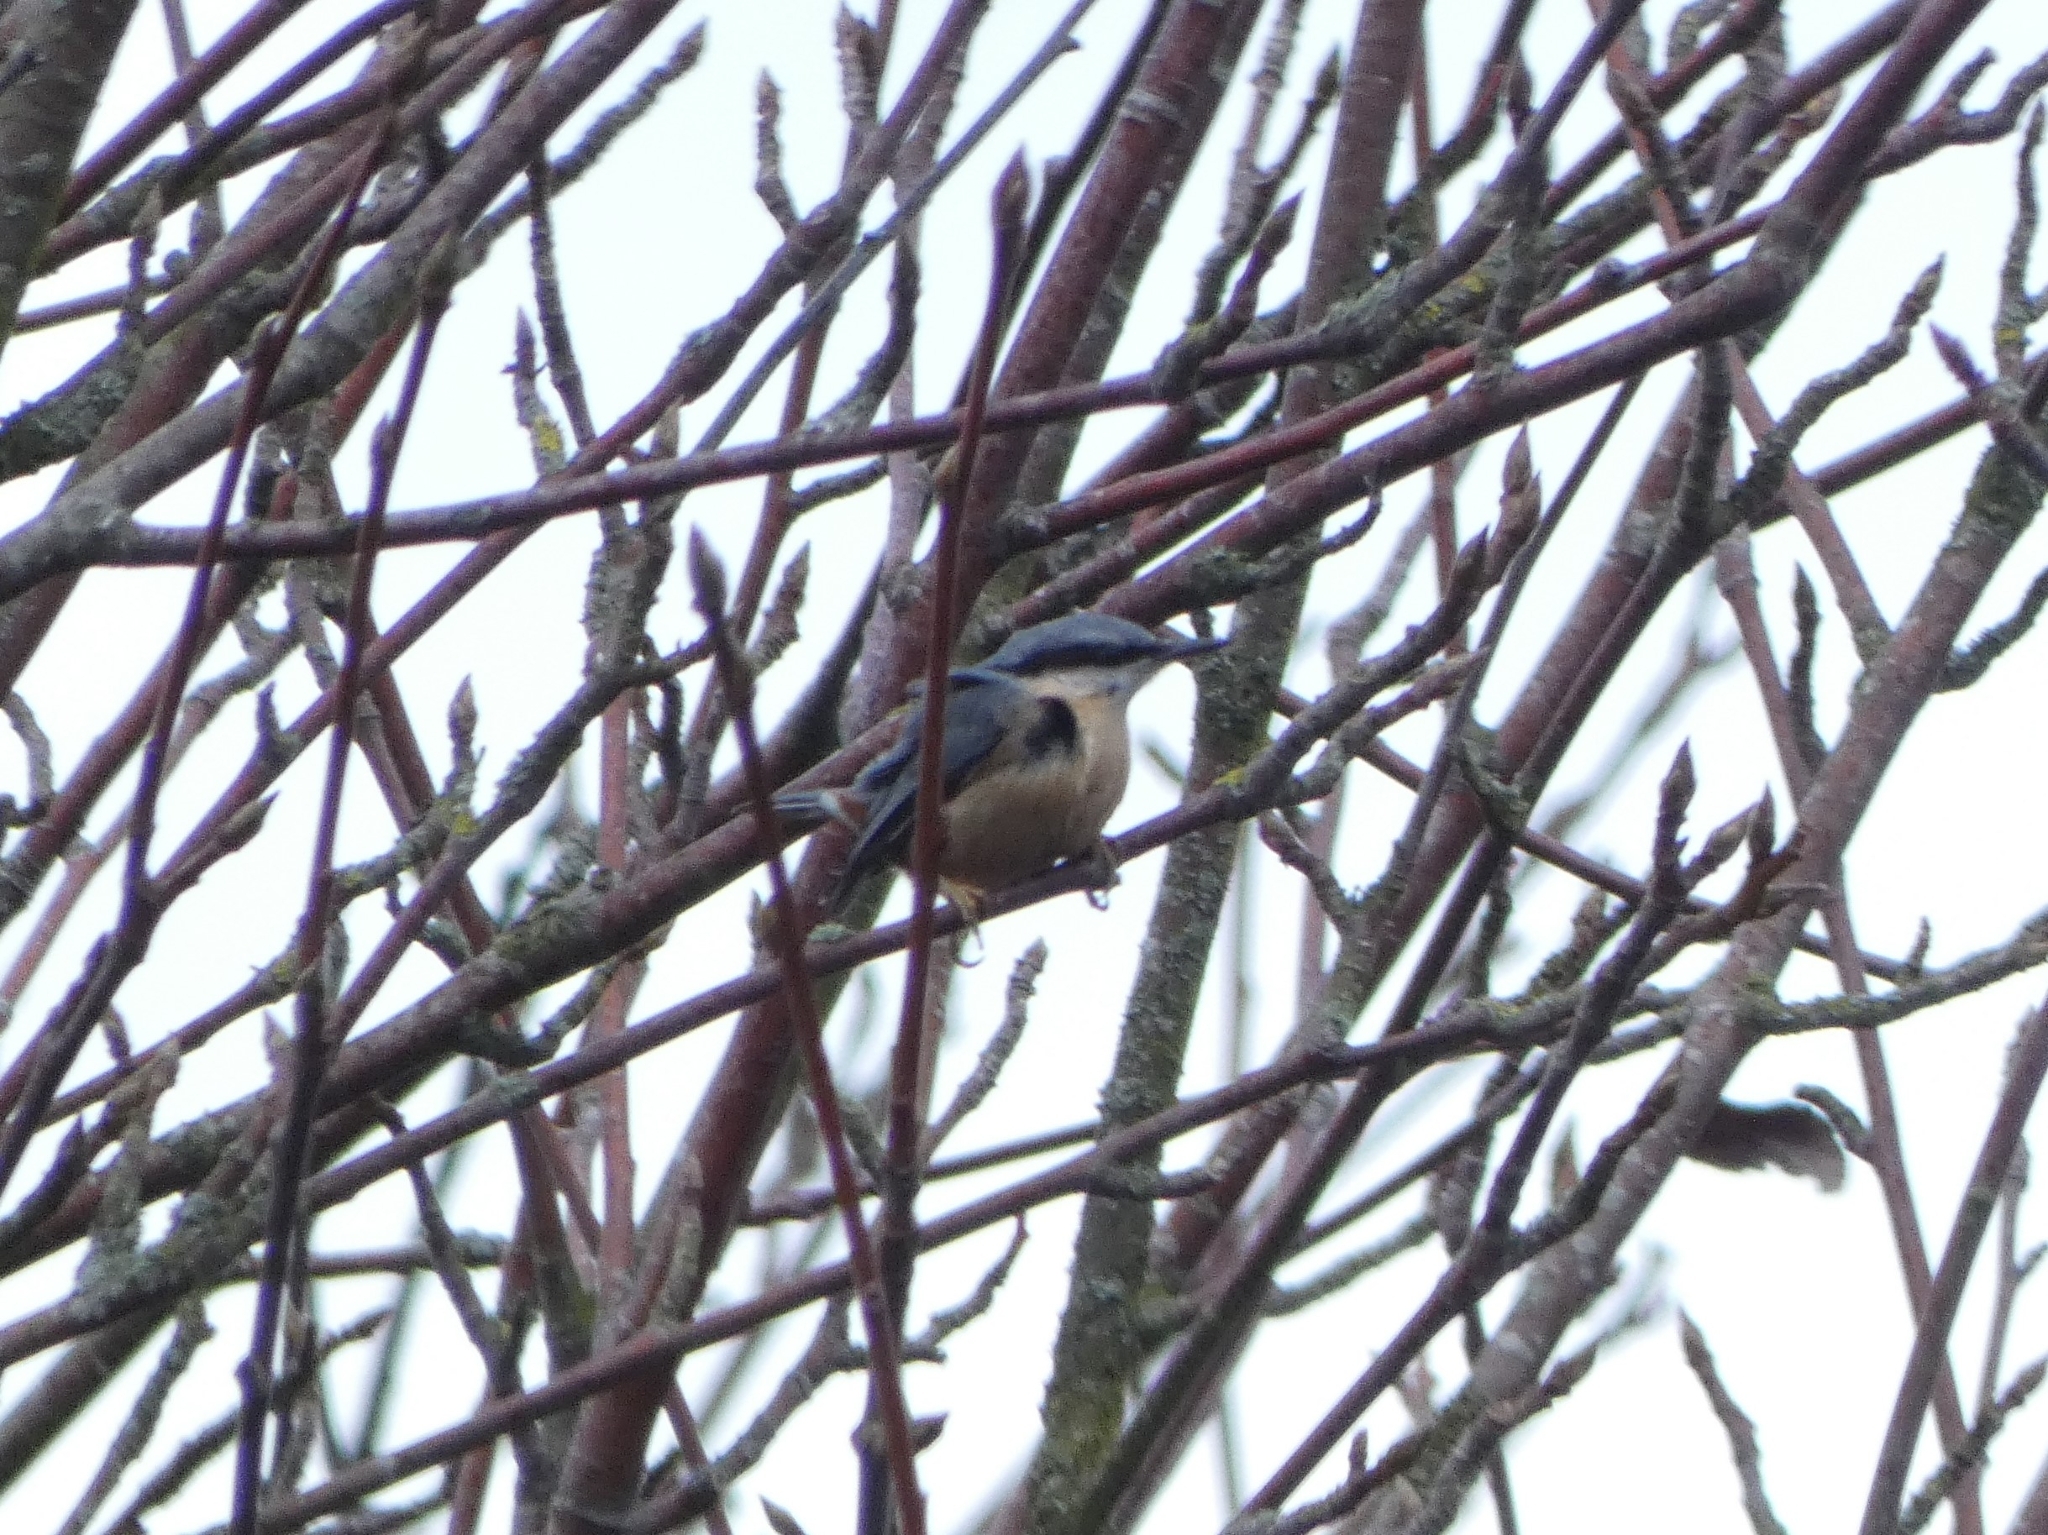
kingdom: Animalia
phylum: Chordata
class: Aves
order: Passeriformes
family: Sittidae
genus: Sitta
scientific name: Sitta europaea
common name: Eurasian nuthatch
